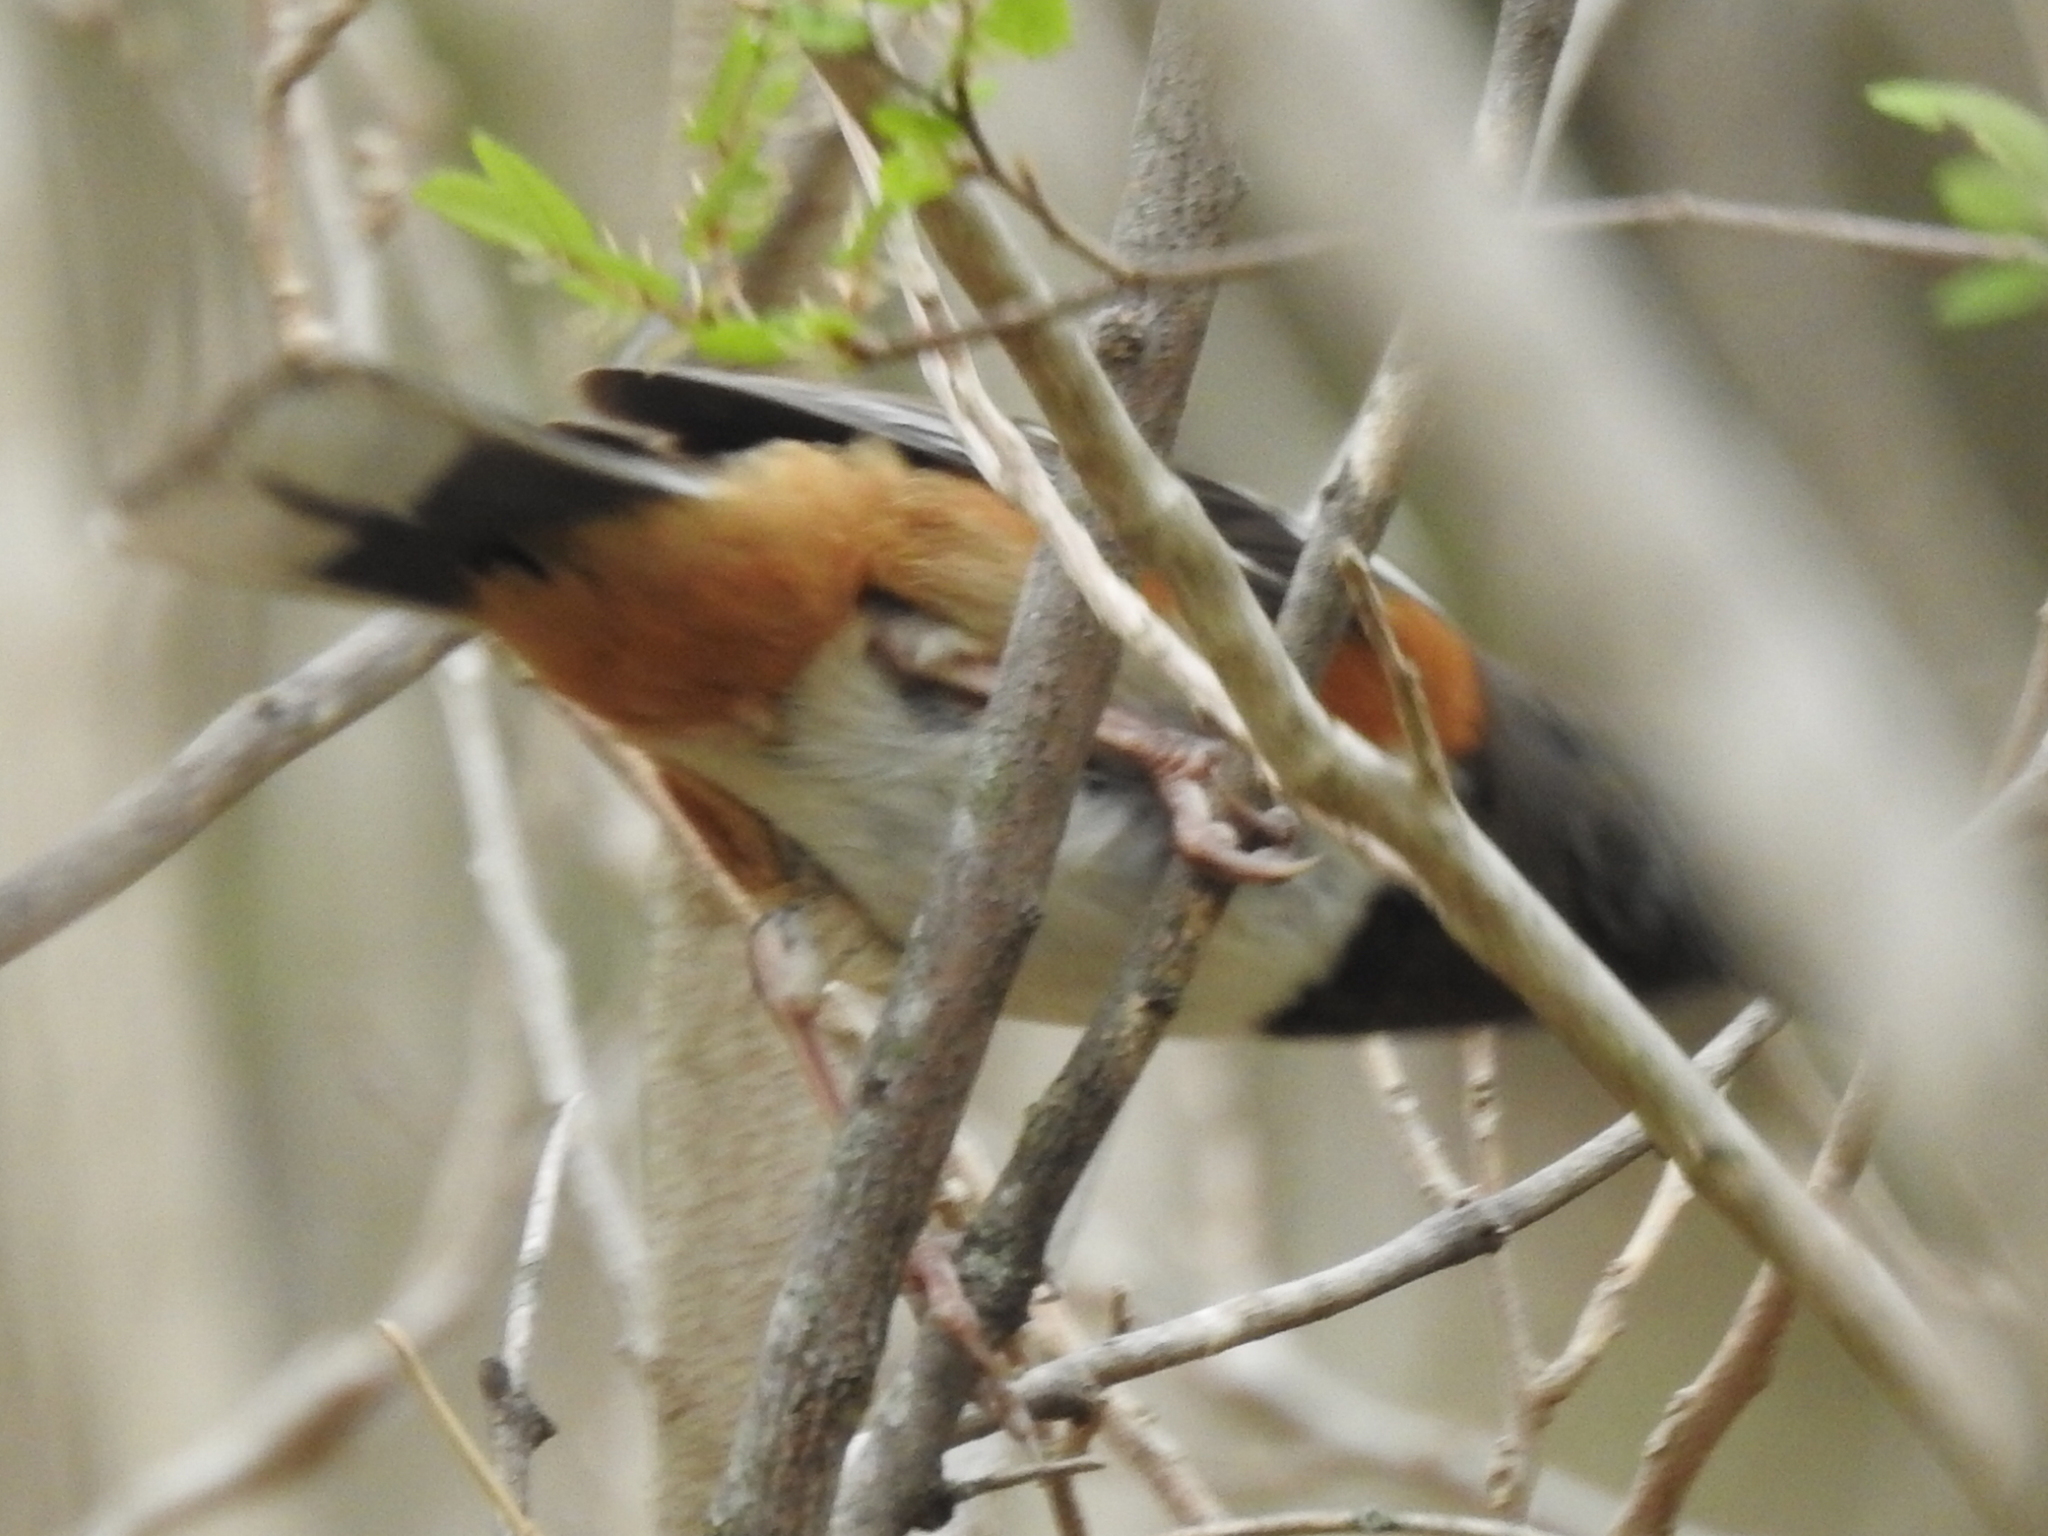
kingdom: Animalia
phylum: Chordata
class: Aves
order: Passeriformes
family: Passerellidae
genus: Pipilo
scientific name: Pipilo maculatus
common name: Spotted towhee
